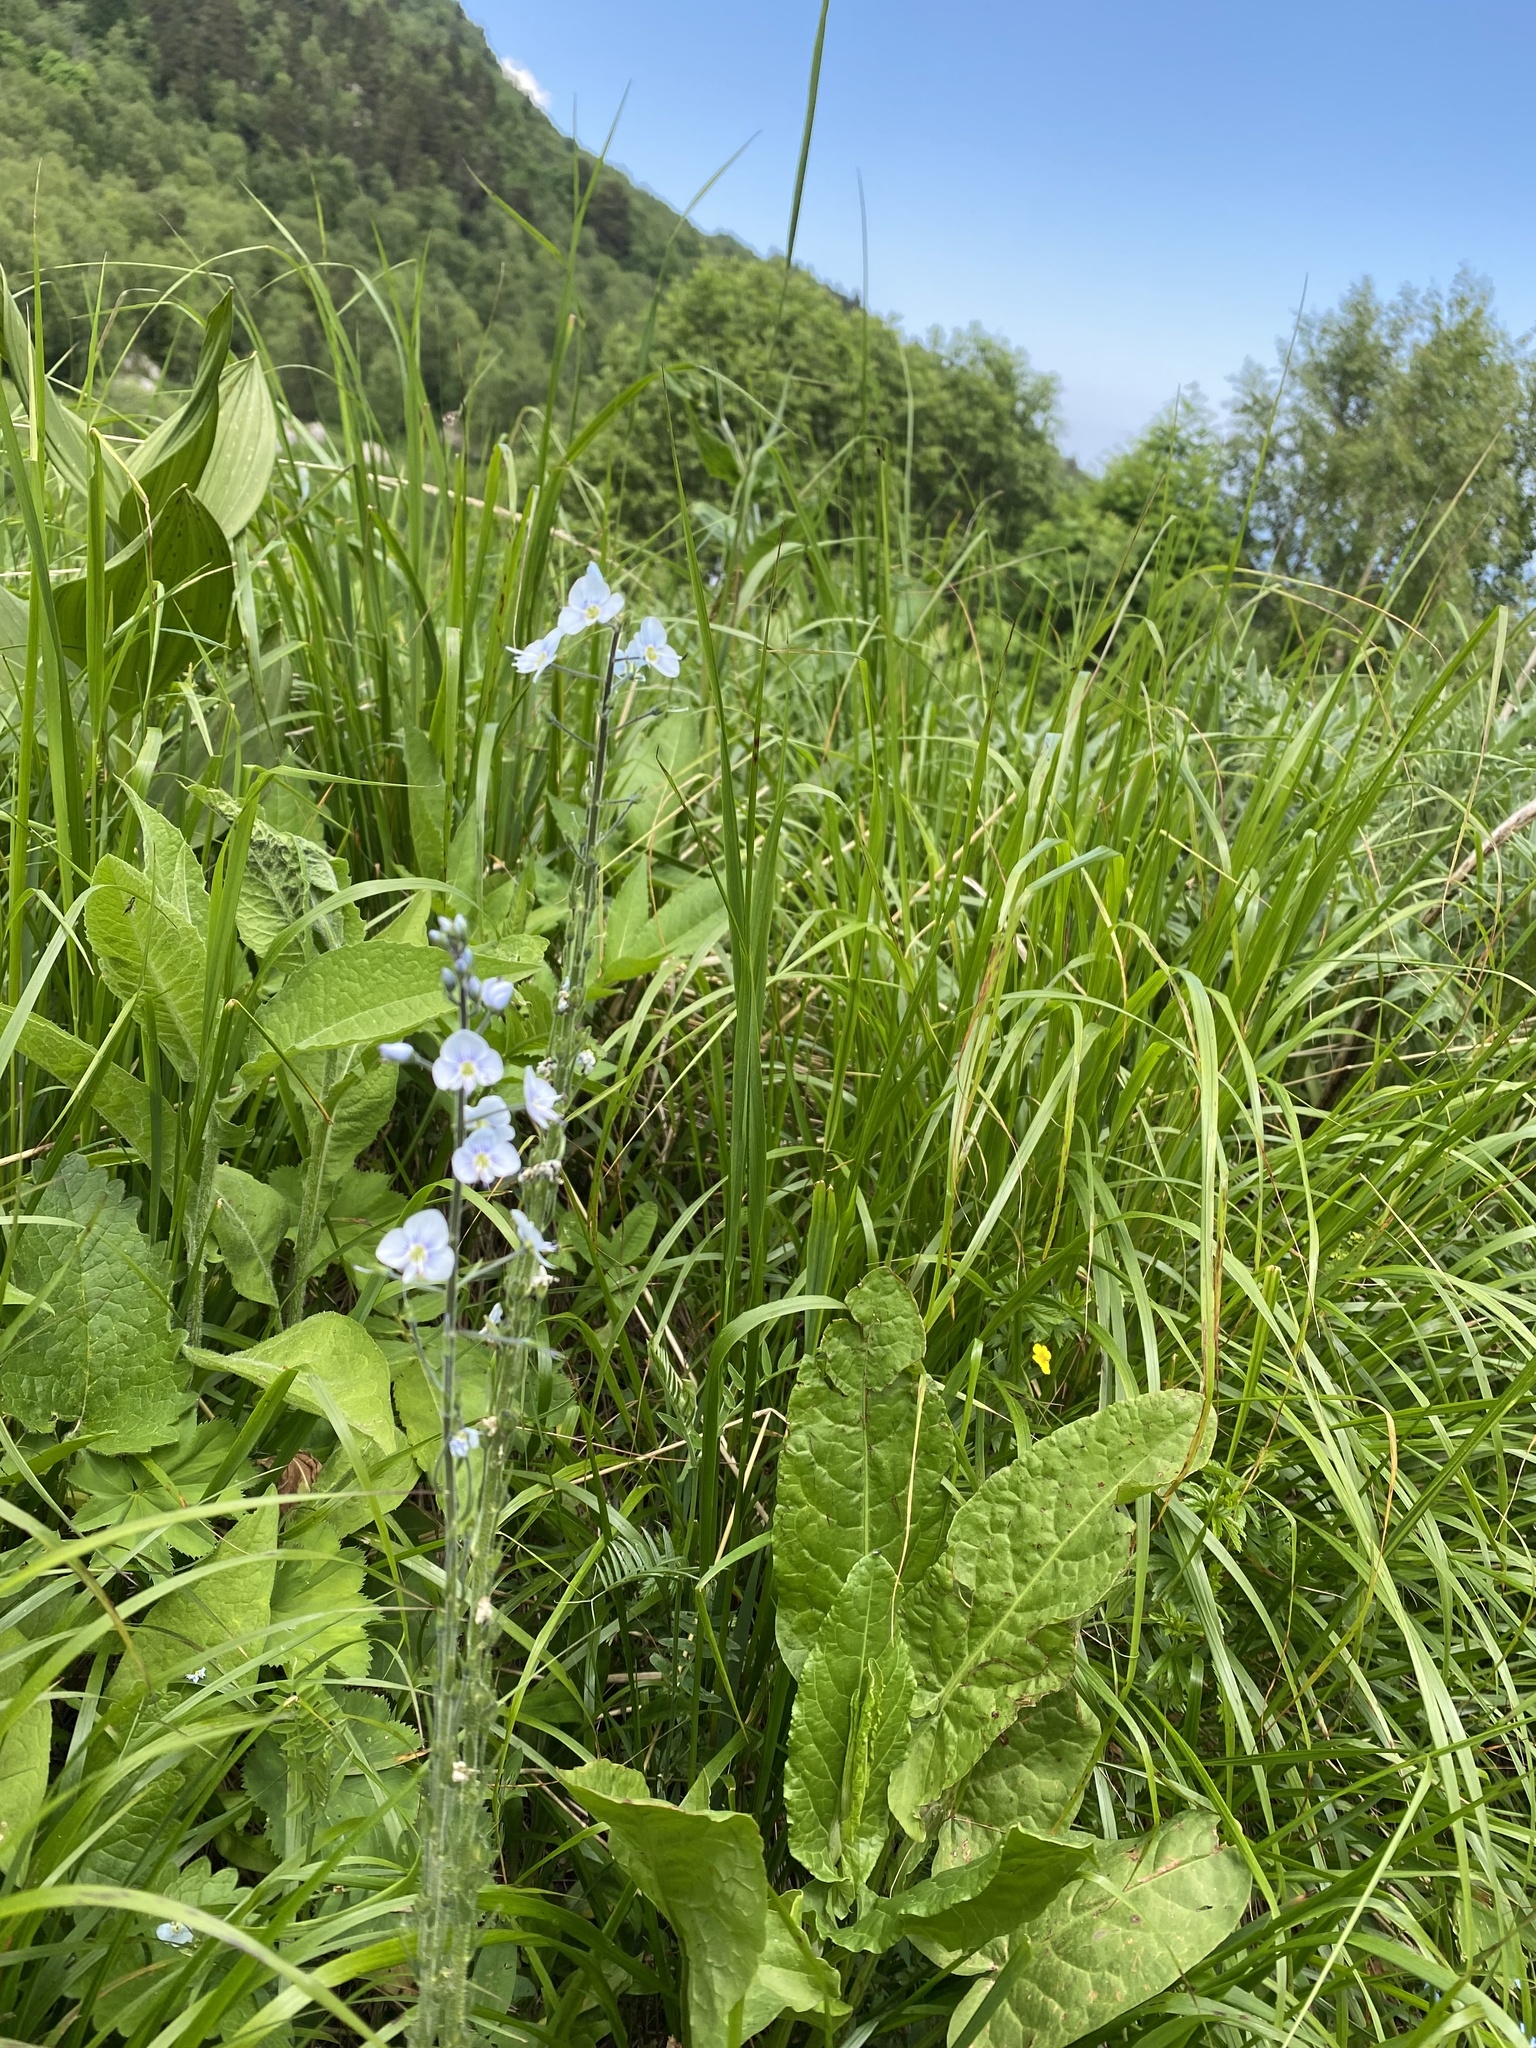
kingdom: Plantae
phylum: Tracheophyta
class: Magnoliopsida
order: Lamiales
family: Plantaginaceae
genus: Veronica
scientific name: Veronica gentianoides
